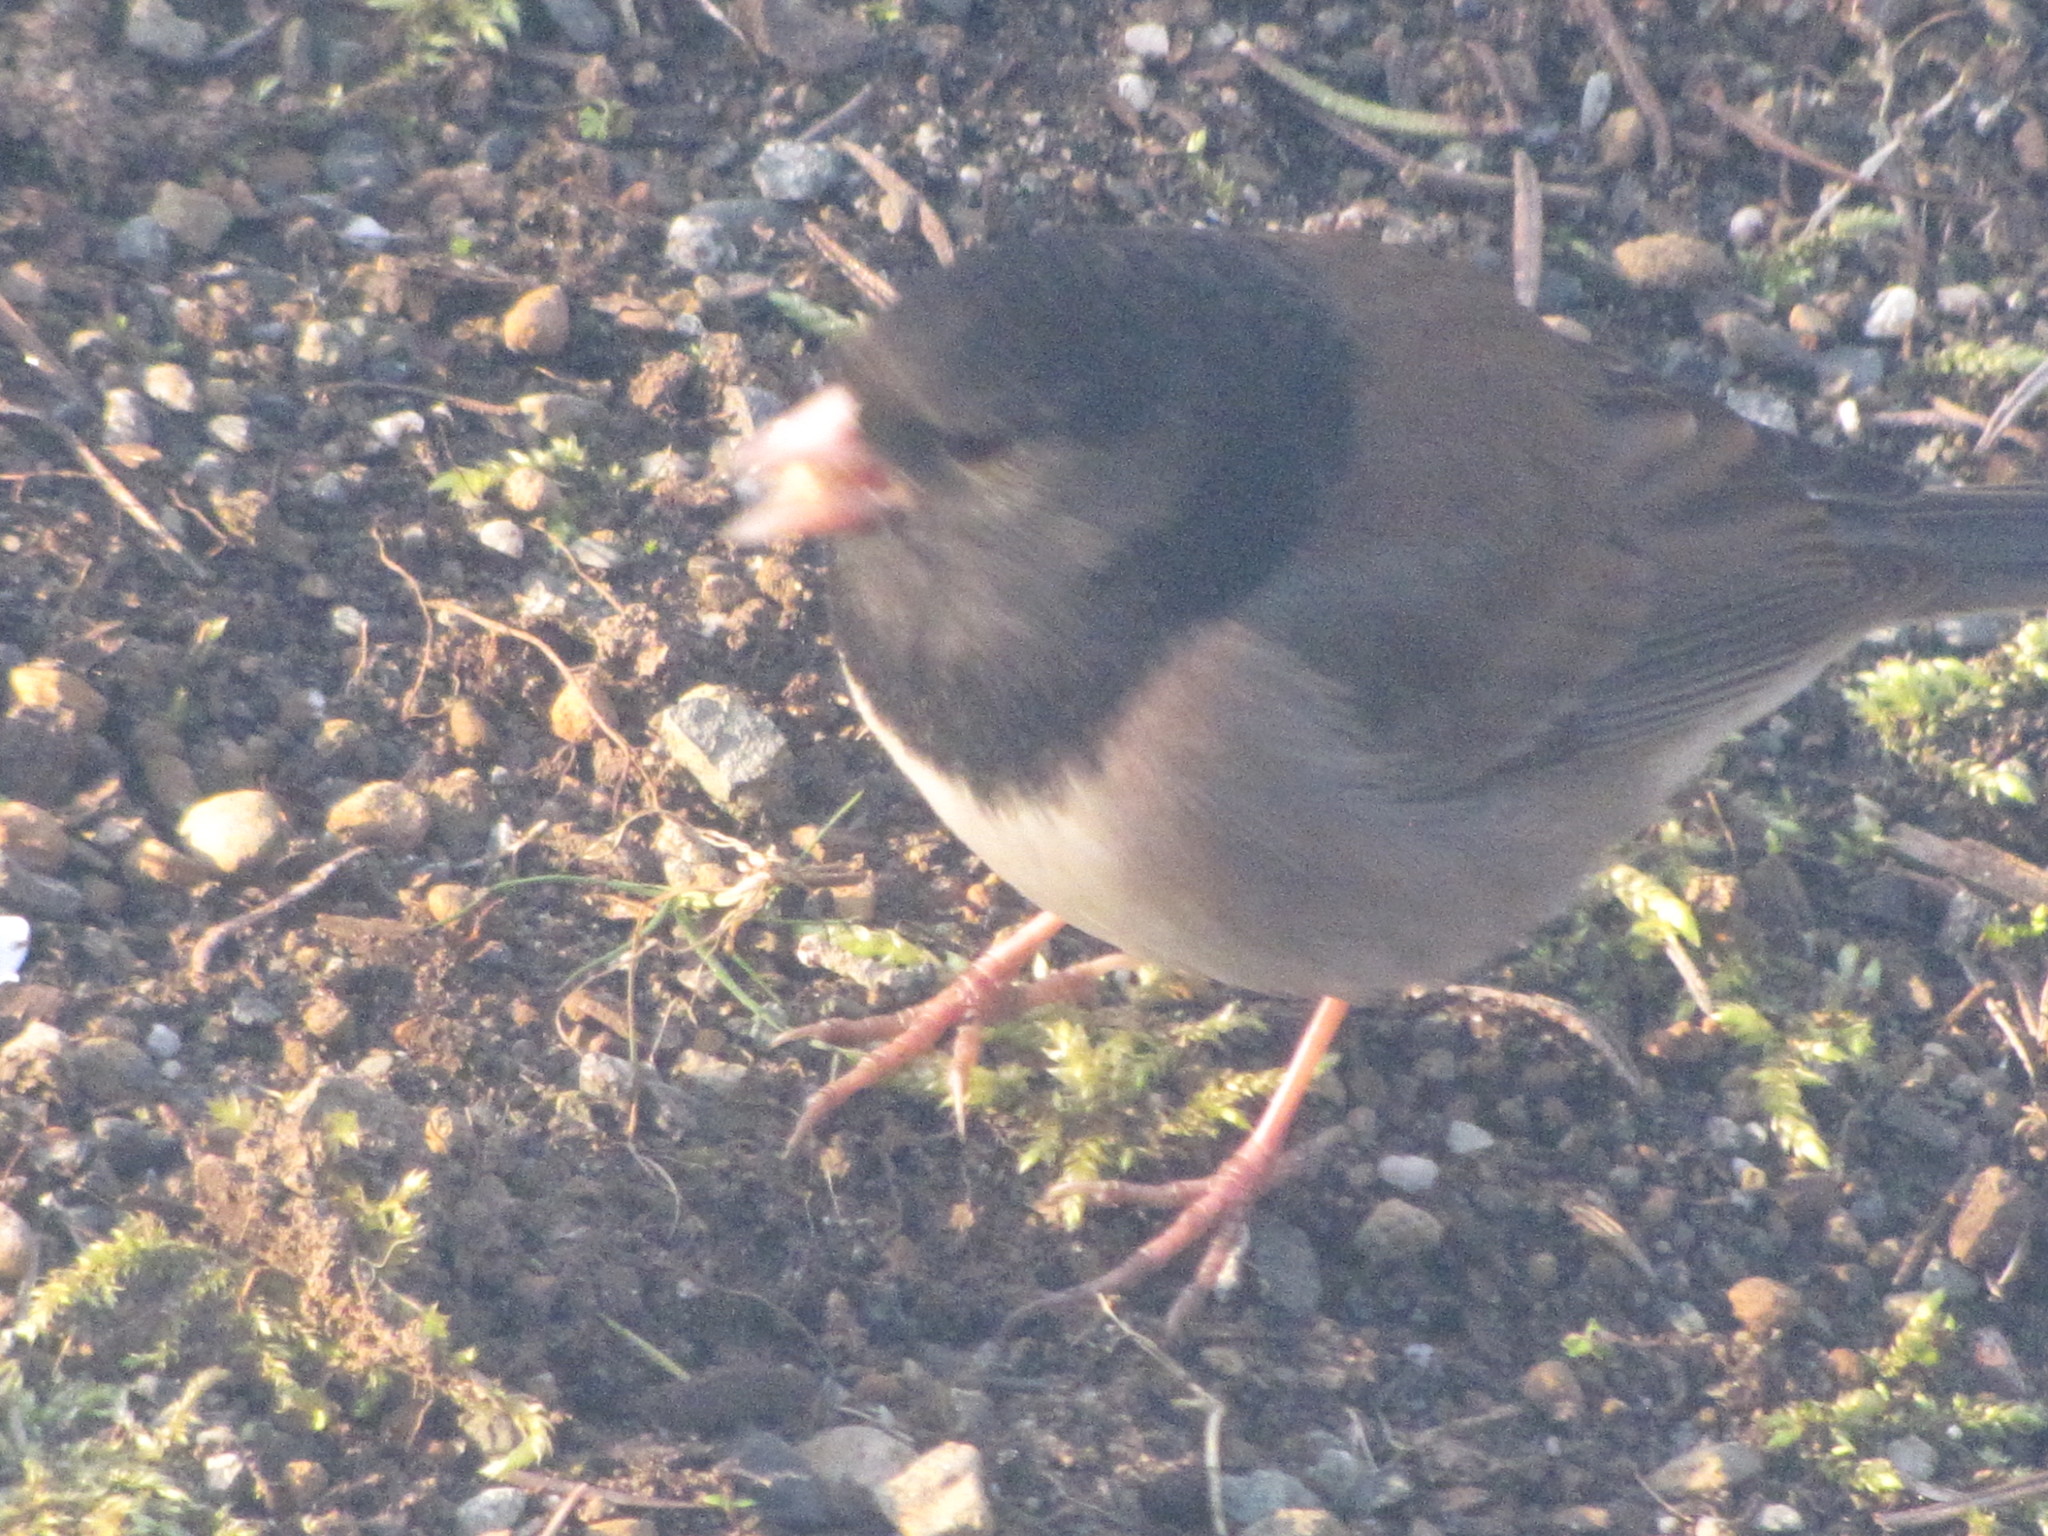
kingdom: Animalia
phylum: Chordata
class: Aves
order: Passeriformes
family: Passerellidae
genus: Junco
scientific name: Junco hyemalis
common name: Dark-eyed junco
